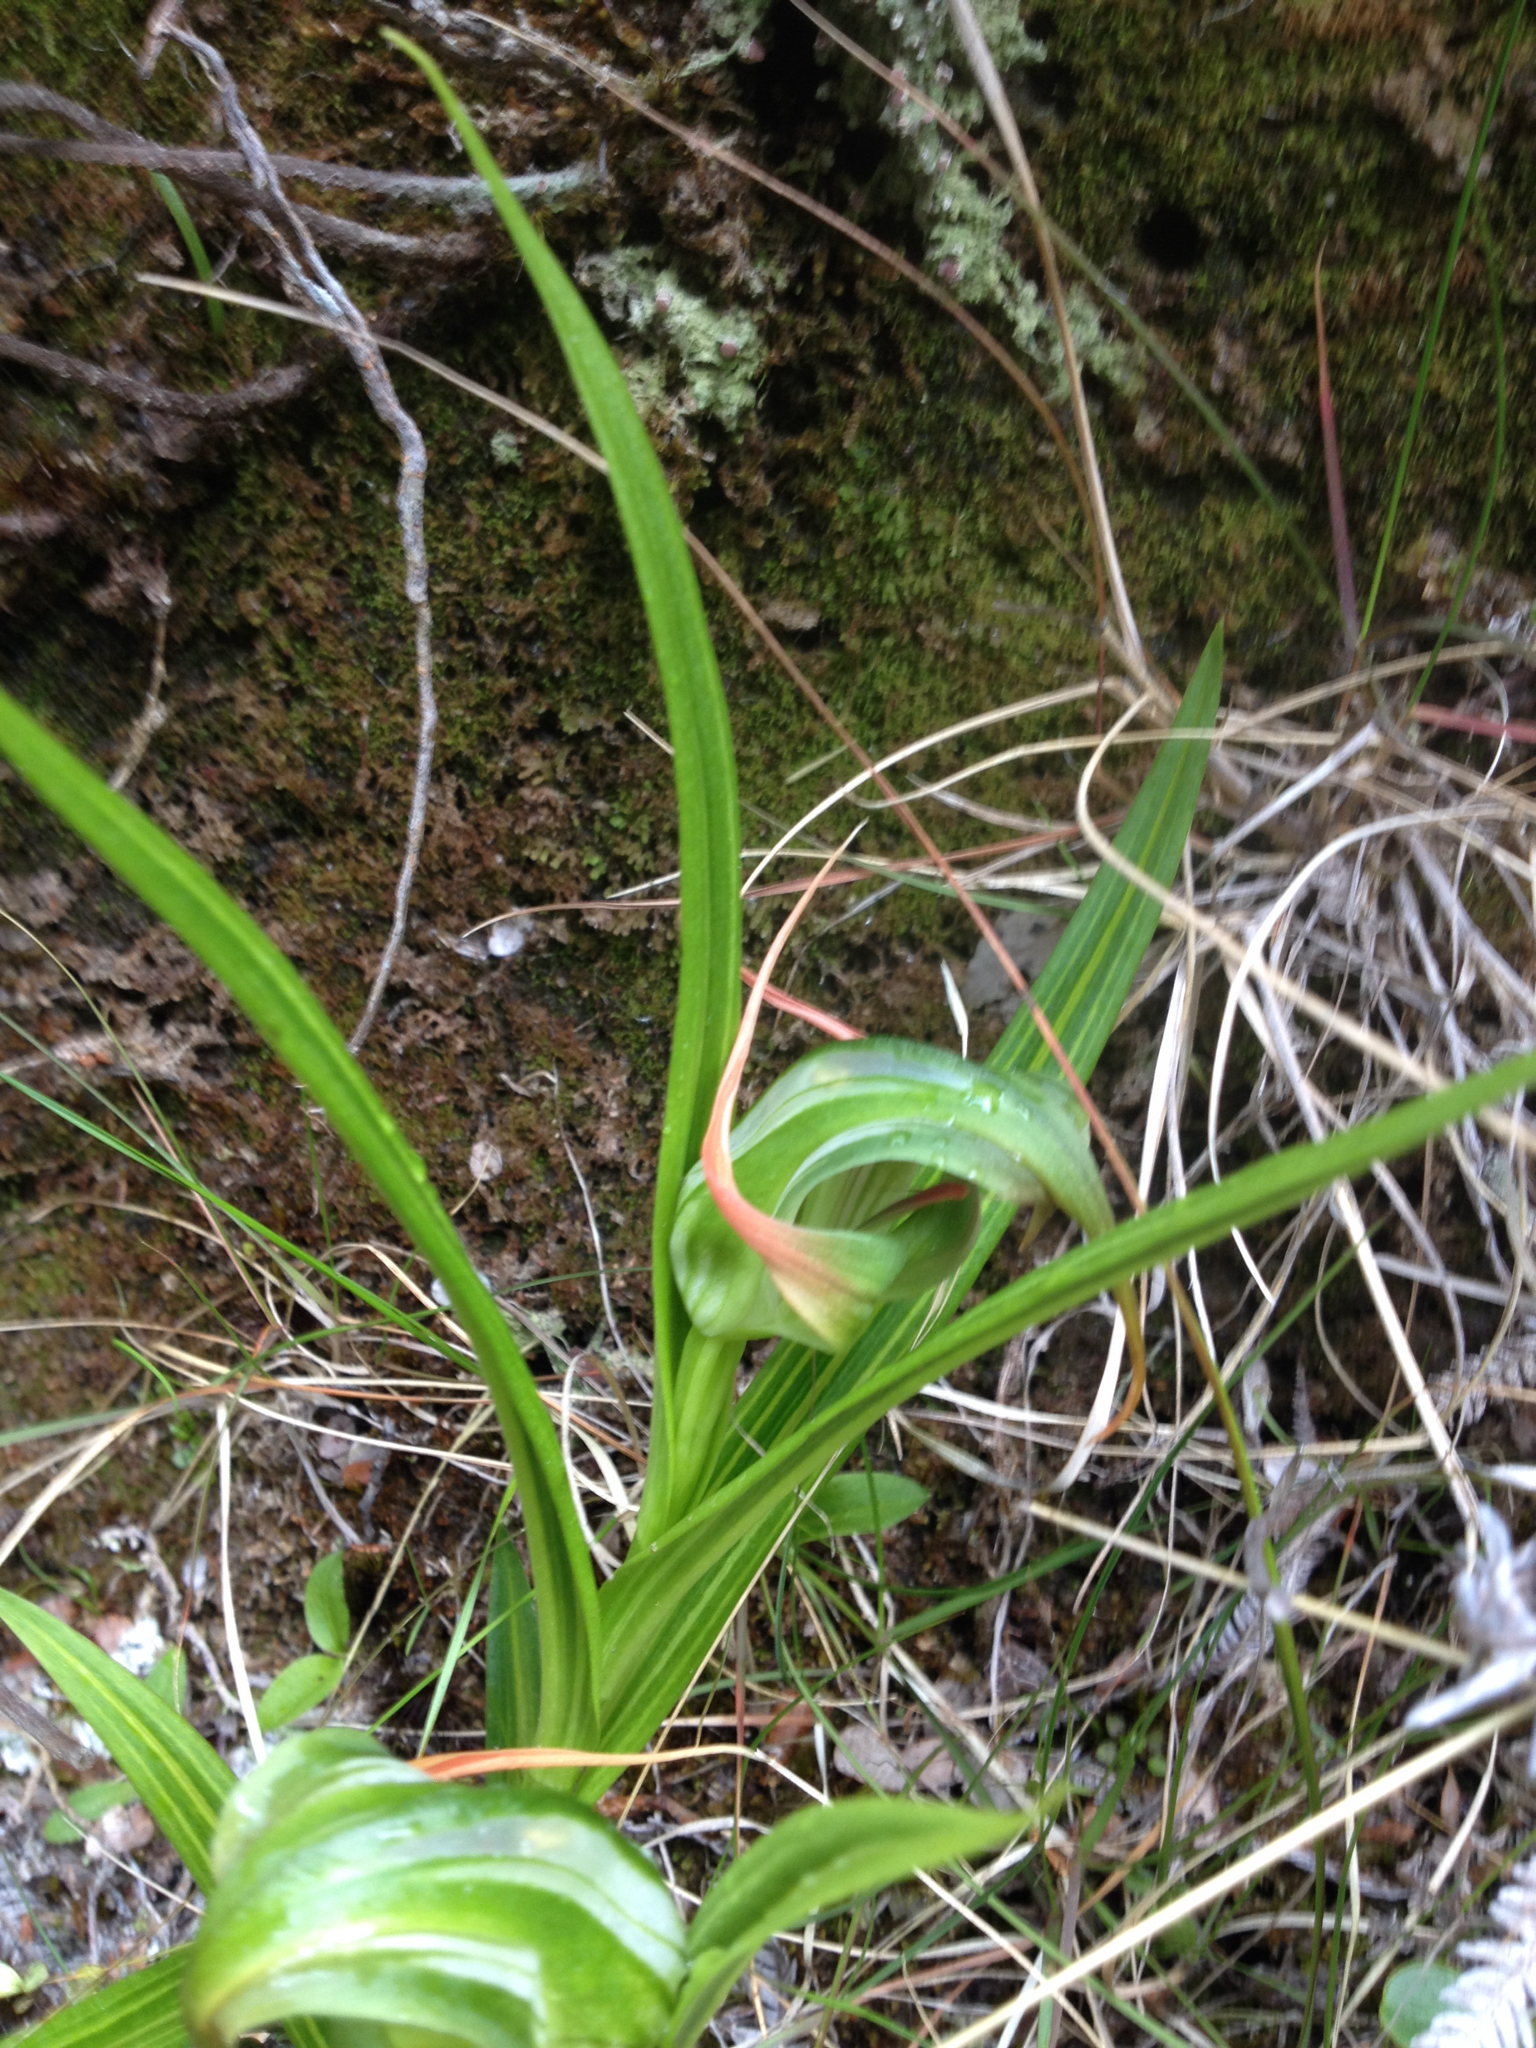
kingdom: Plantae
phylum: Tracheophyta
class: Liliopsida
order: Asparagales
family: Orchidaceae
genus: Pterostylis
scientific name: Pterostylis patens
